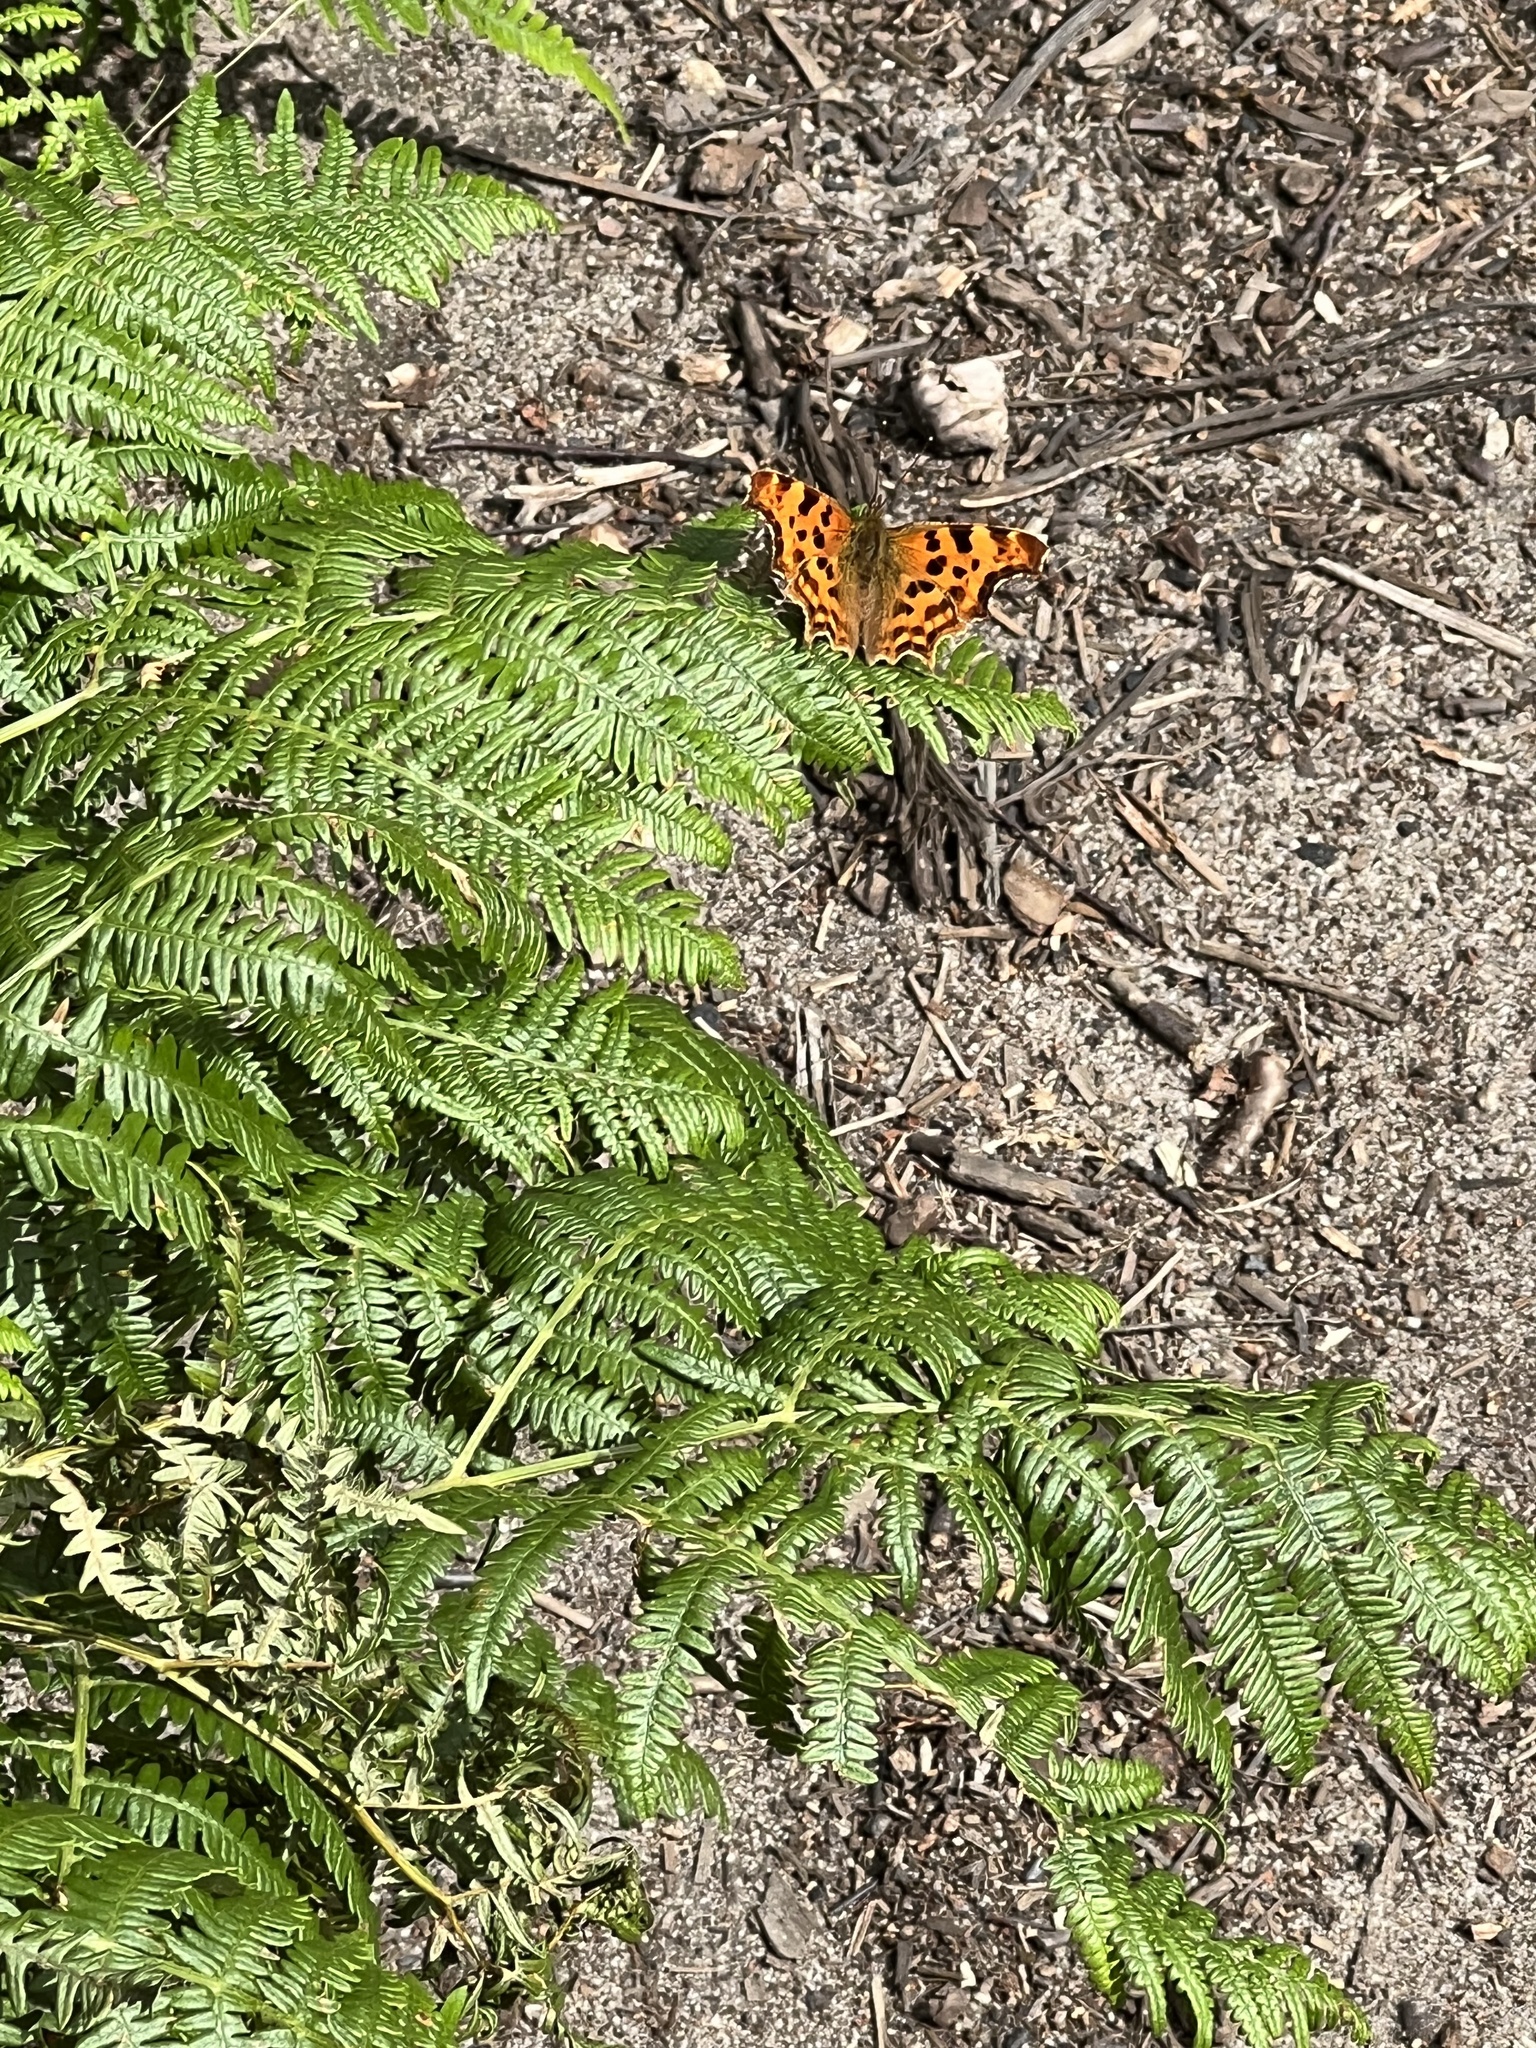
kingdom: Animalia
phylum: Arthropoda
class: Insecta
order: Lepidoptera
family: Nymphalidae
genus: Polygonia
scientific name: Polygonia c-album
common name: Comma
